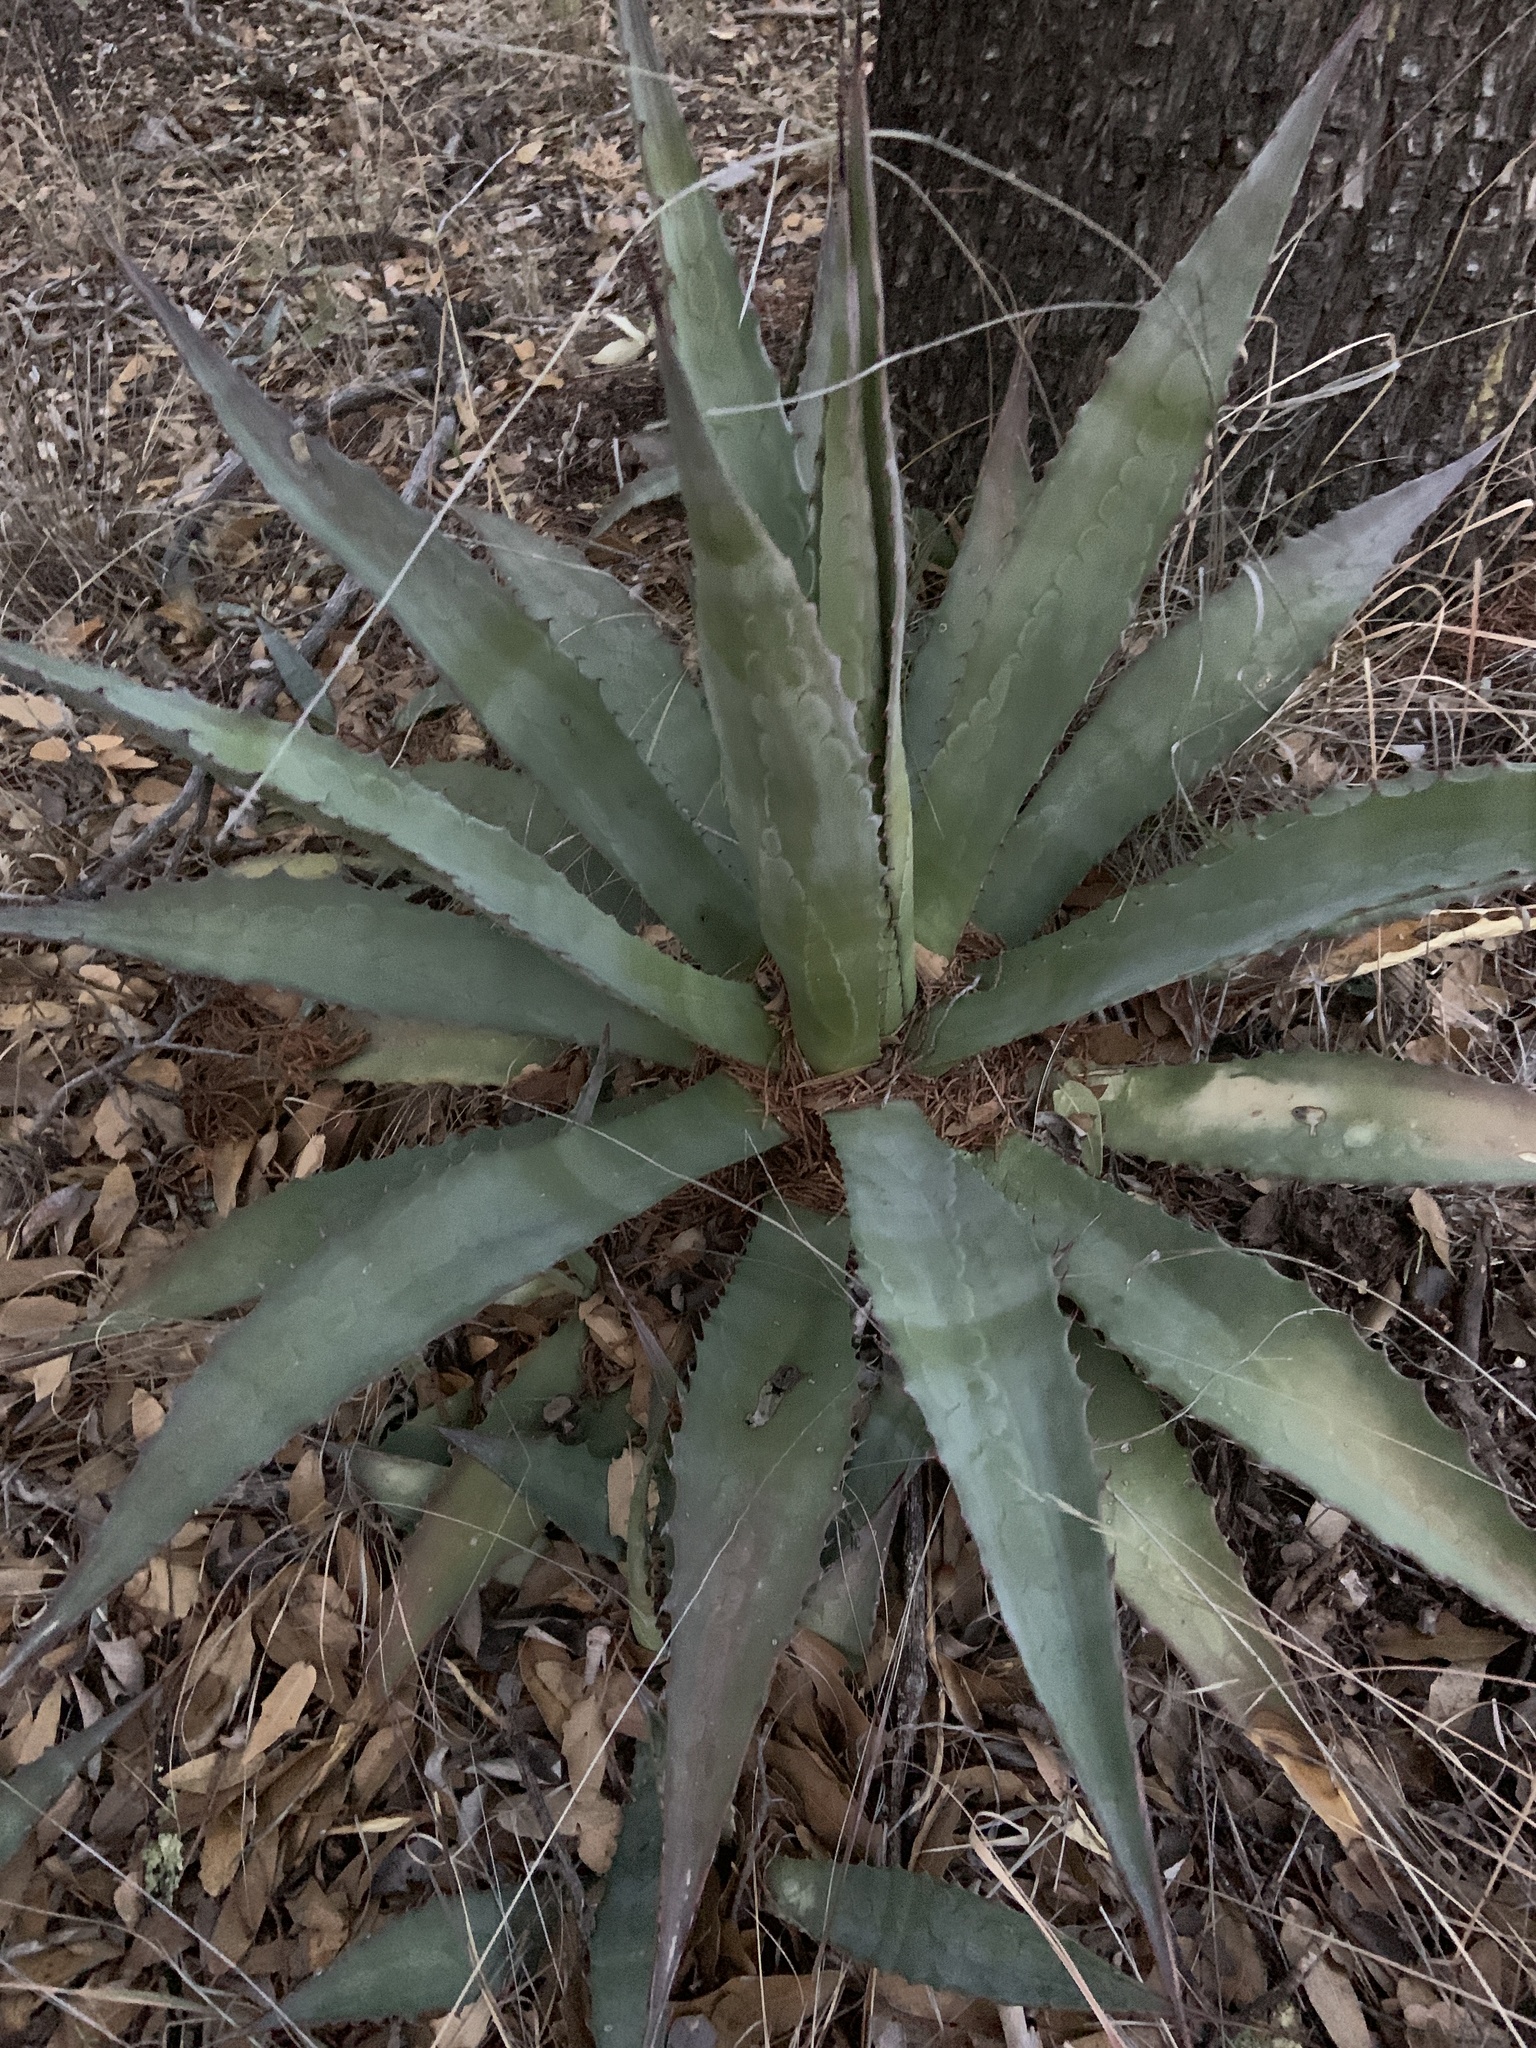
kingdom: Plantae
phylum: Tracheophyta
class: Liliopsida
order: Asparagales
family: Asparagaceae
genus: Agave
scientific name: Agave palmeri
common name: Palmer agave
